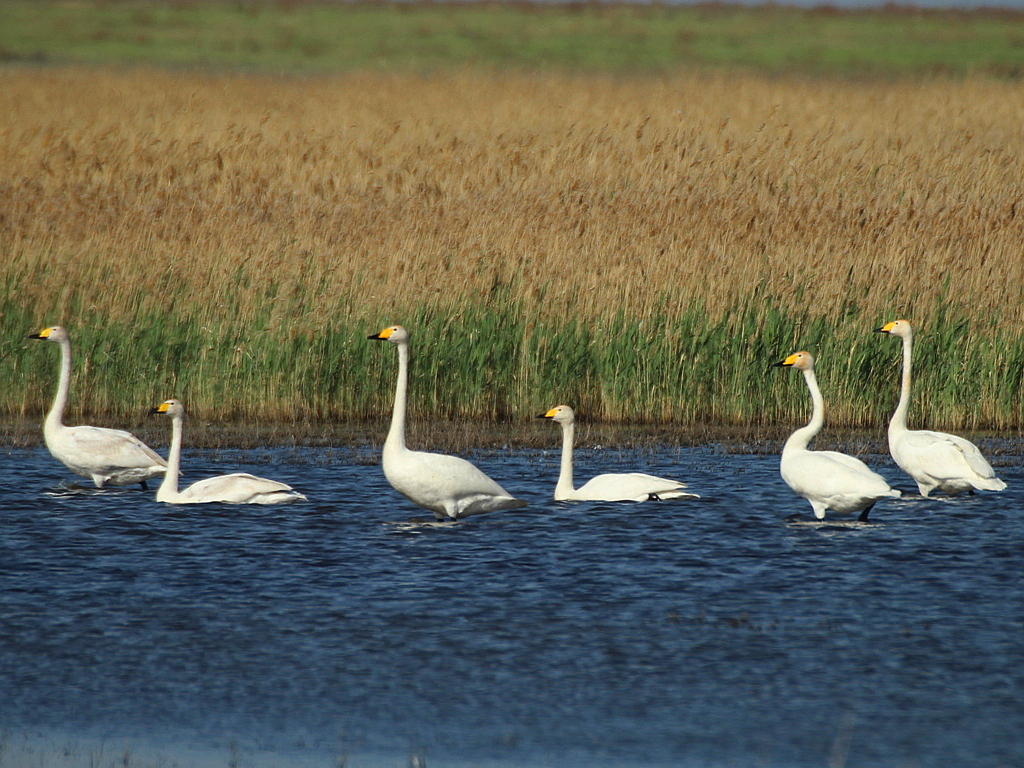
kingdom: Animalia
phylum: Chordata
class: Aves
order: Anseriformes
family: Anatidae
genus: Cygnus
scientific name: Cygnus cygnus
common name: Whooper swan
